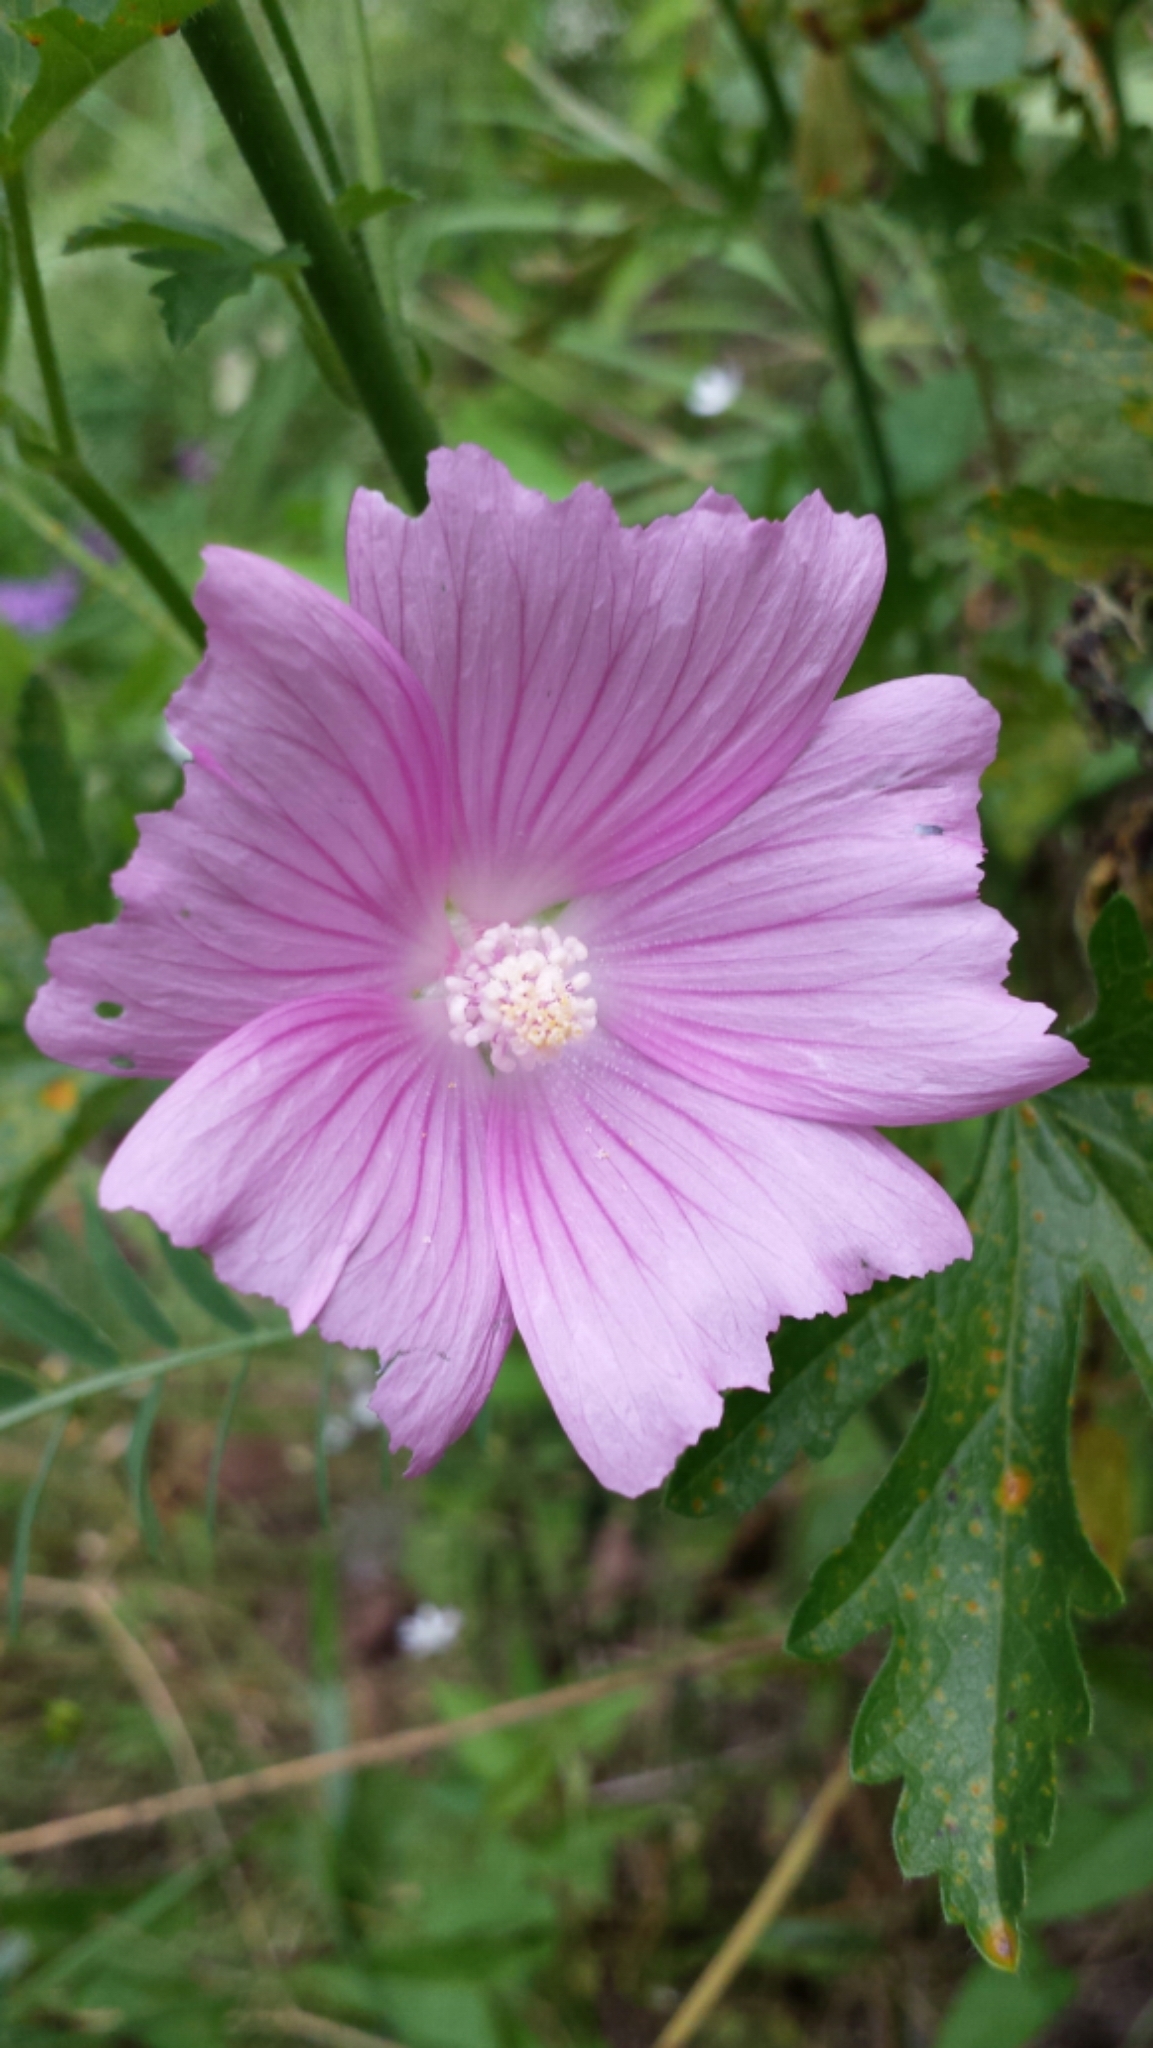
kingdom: Plantae
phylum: Tracheophyta
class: Magnoliopsida
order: Malvales
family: Malvaceae
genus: Malva
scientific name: Malva moschata
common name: Musk mallow
